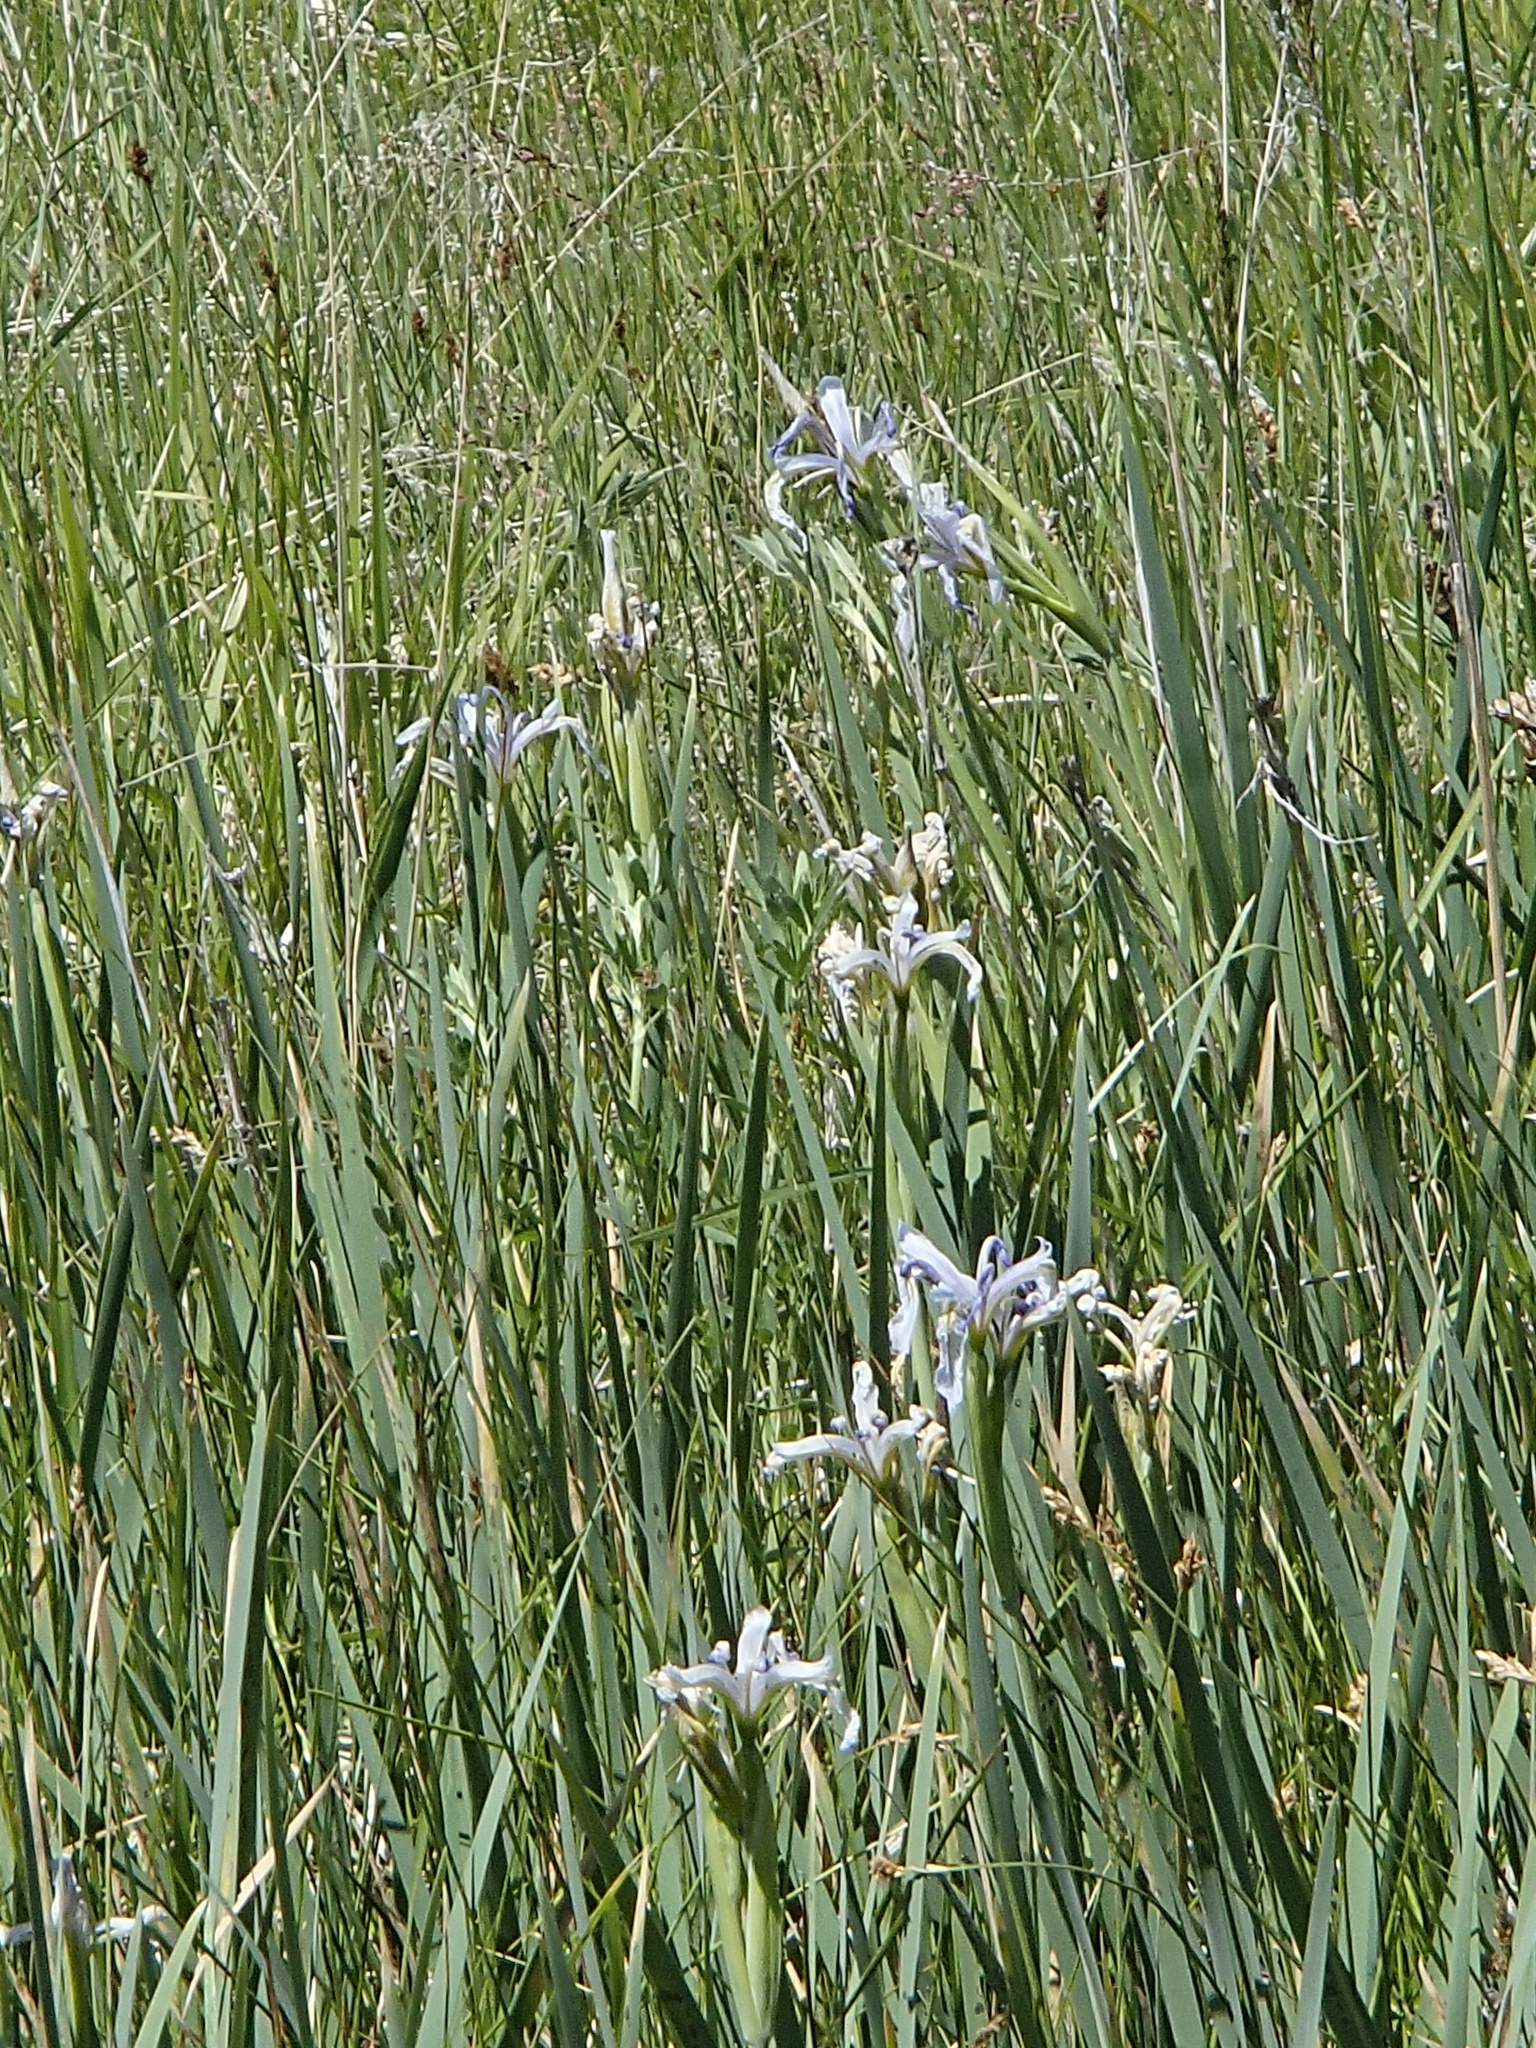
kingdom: Plantae
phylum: Tracheophyta
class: Liliopsida
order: Asparagales
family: Iridaceae
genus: Iris
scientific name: Iris missouriensis
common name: Rocky mountain iris
